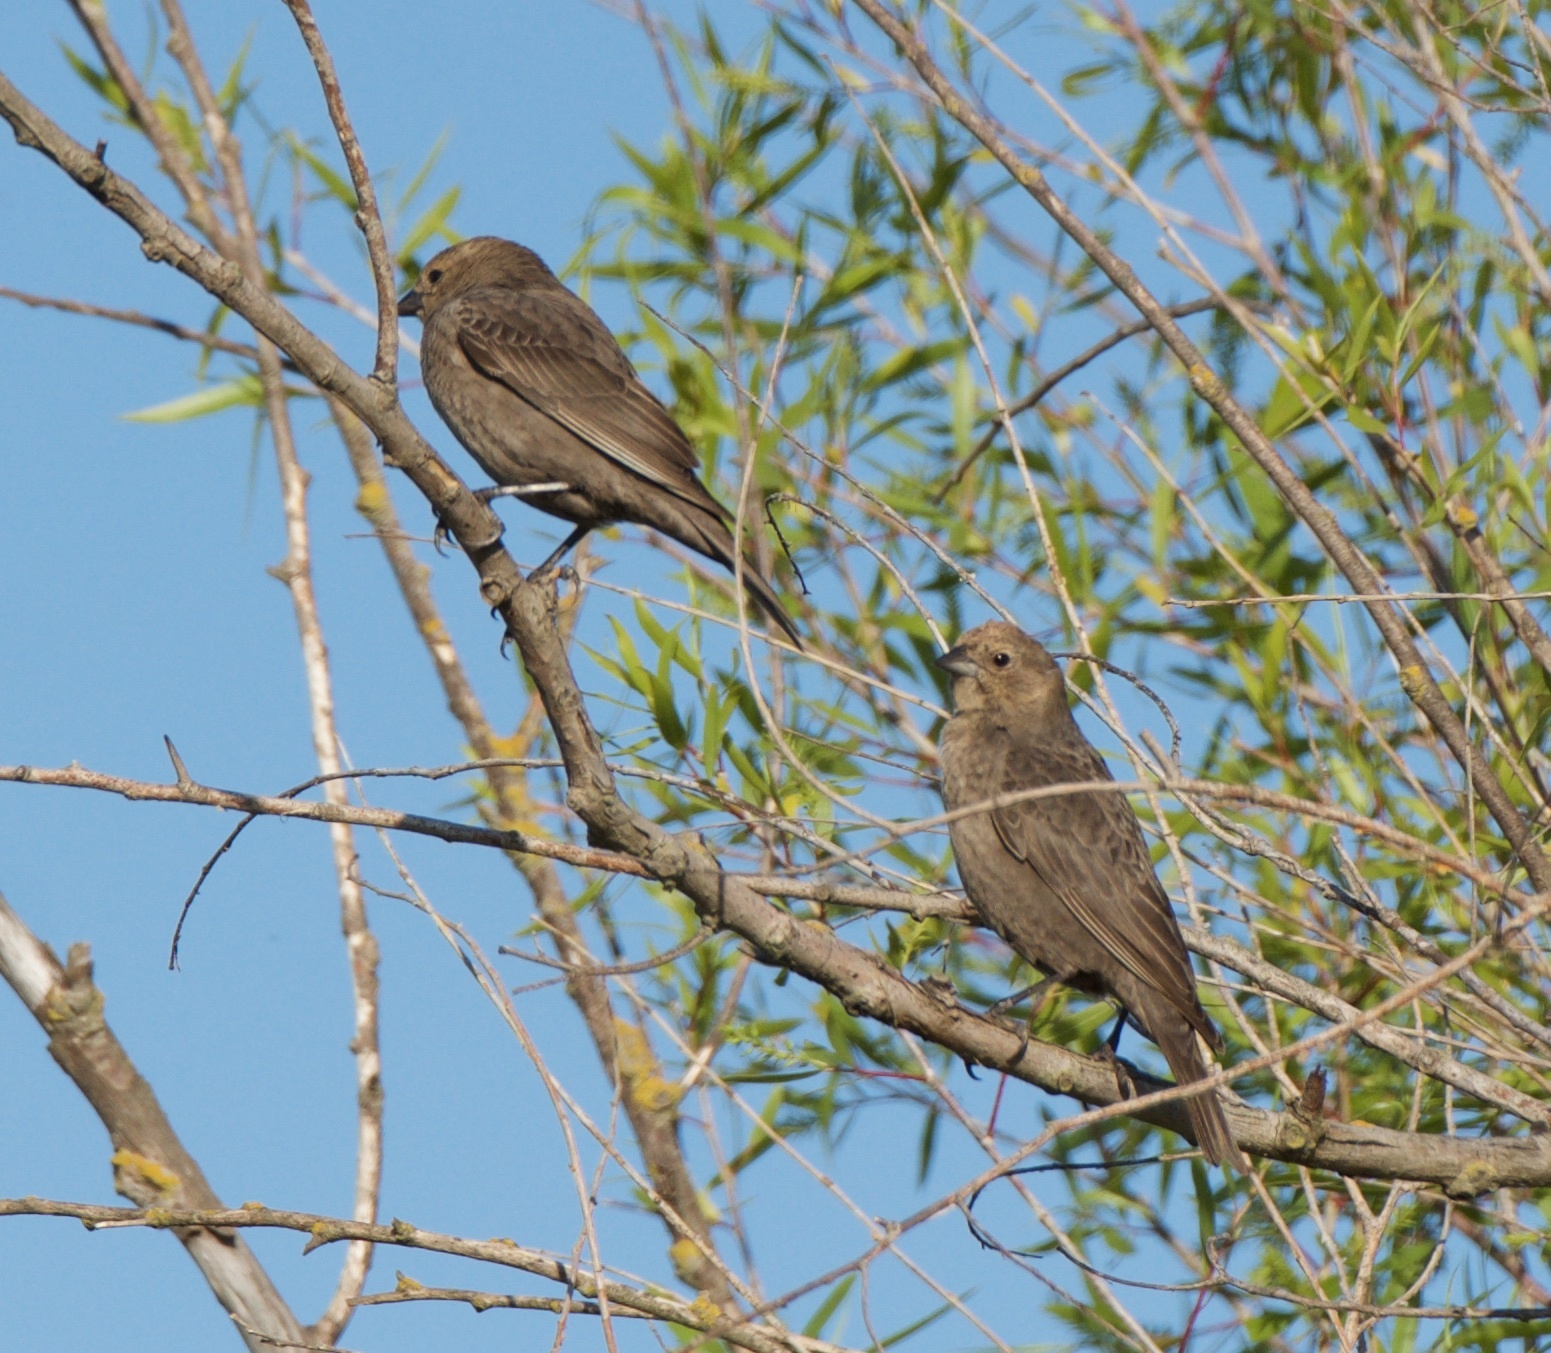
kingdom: Animalia
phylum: Chordata
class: Aves
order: Passeriformes
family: Icteridae
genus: Molothrus
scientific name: Molothrus ater
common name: Brown-headed cowbird
